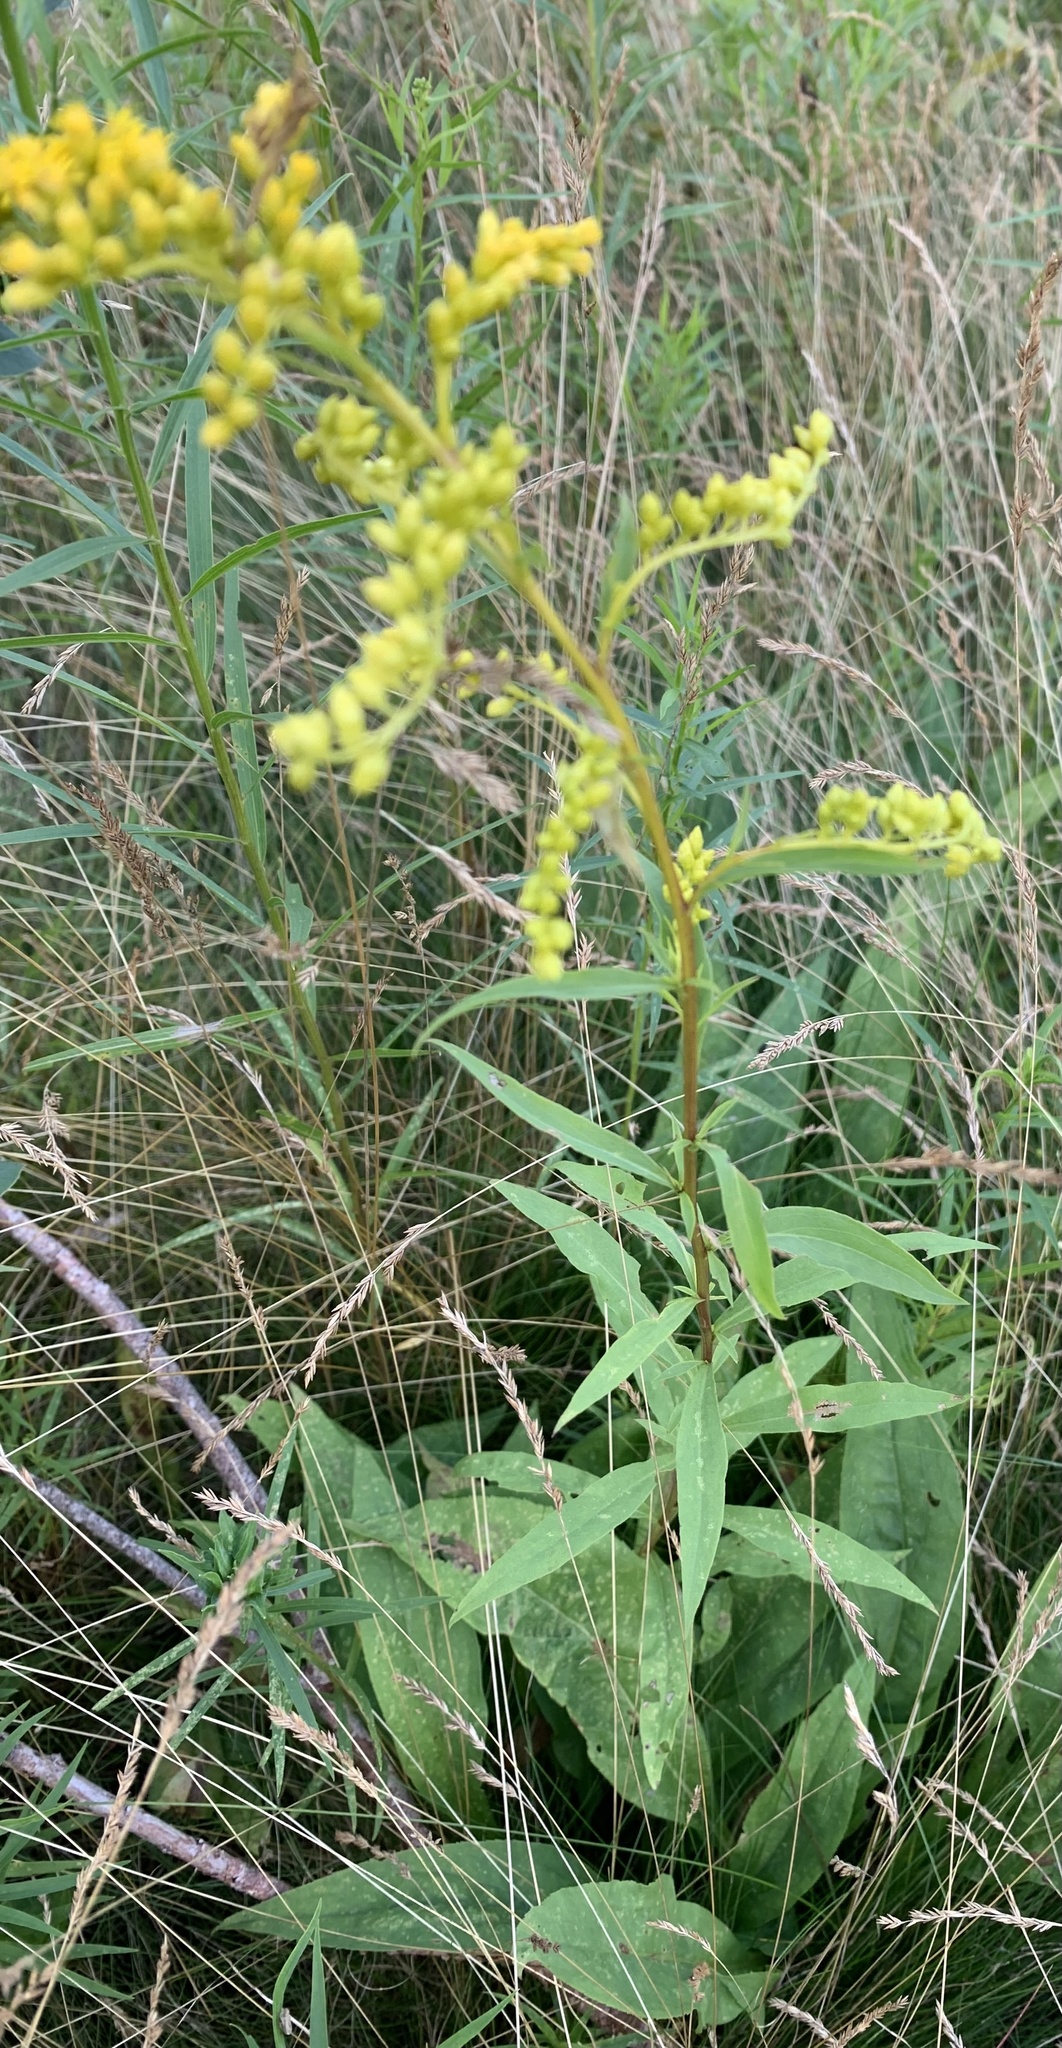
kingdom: Plantae
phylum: Tracheophyta
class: Magnoliopsida
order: Asterales
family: Asteraceae
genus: Solidago
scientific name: Solidago juncea
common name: Early goldenrod
